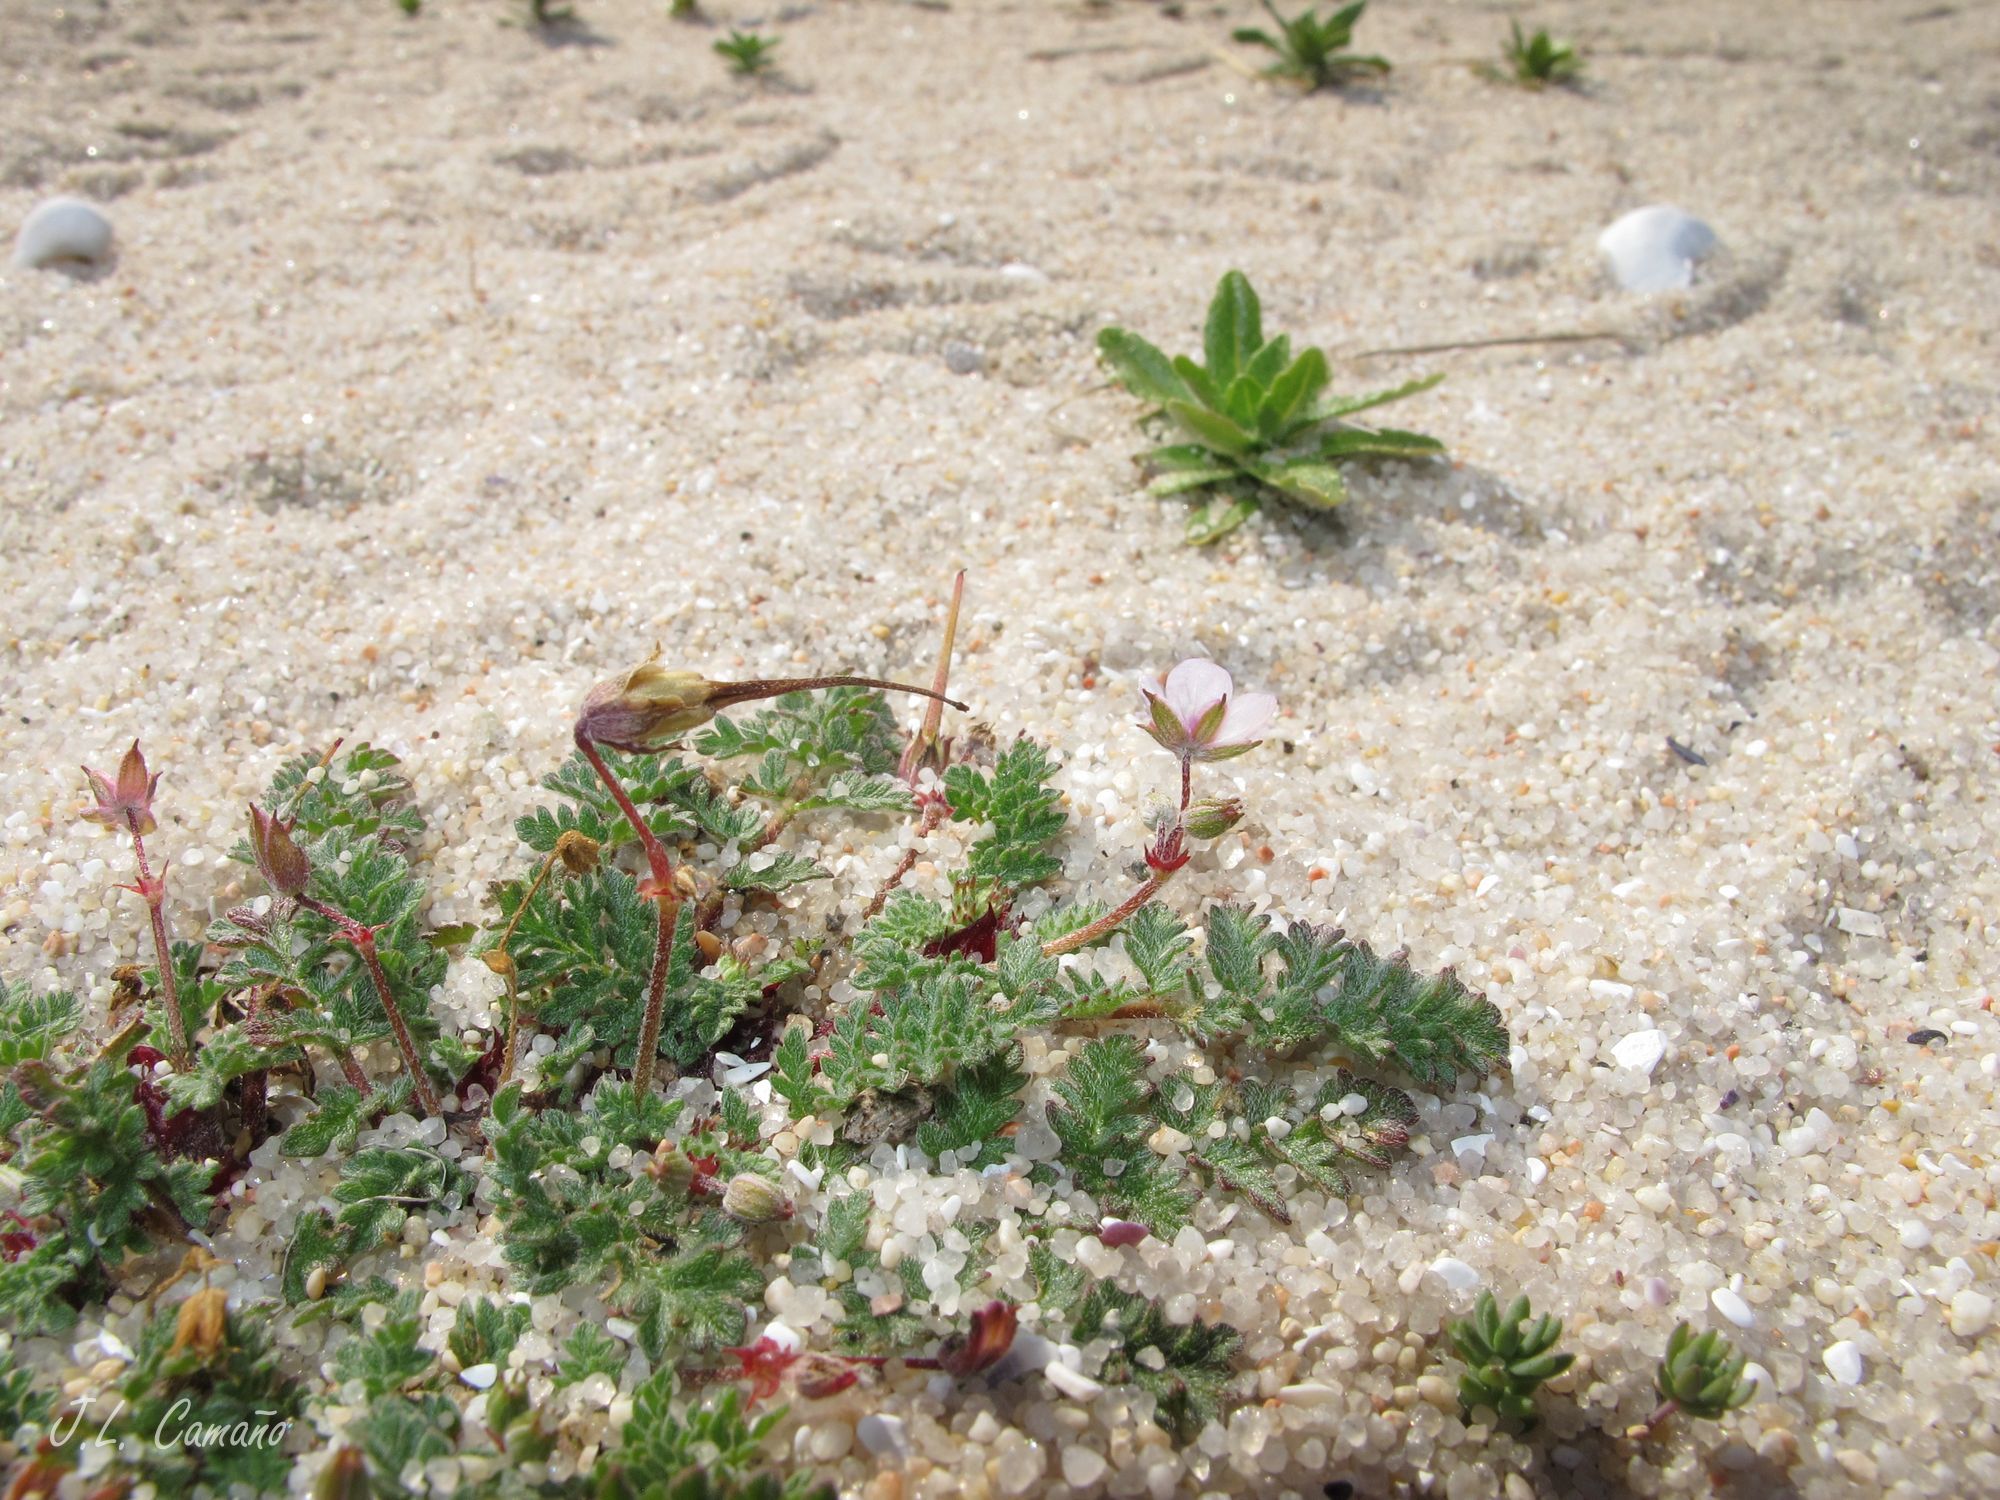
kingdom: Plantae
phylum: Tracheophyta
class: Magnoliopsida
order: Geraniales
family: Geraniaceae
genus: Erodium
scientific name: Erodium cicutarium
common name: Common stork's-bill
